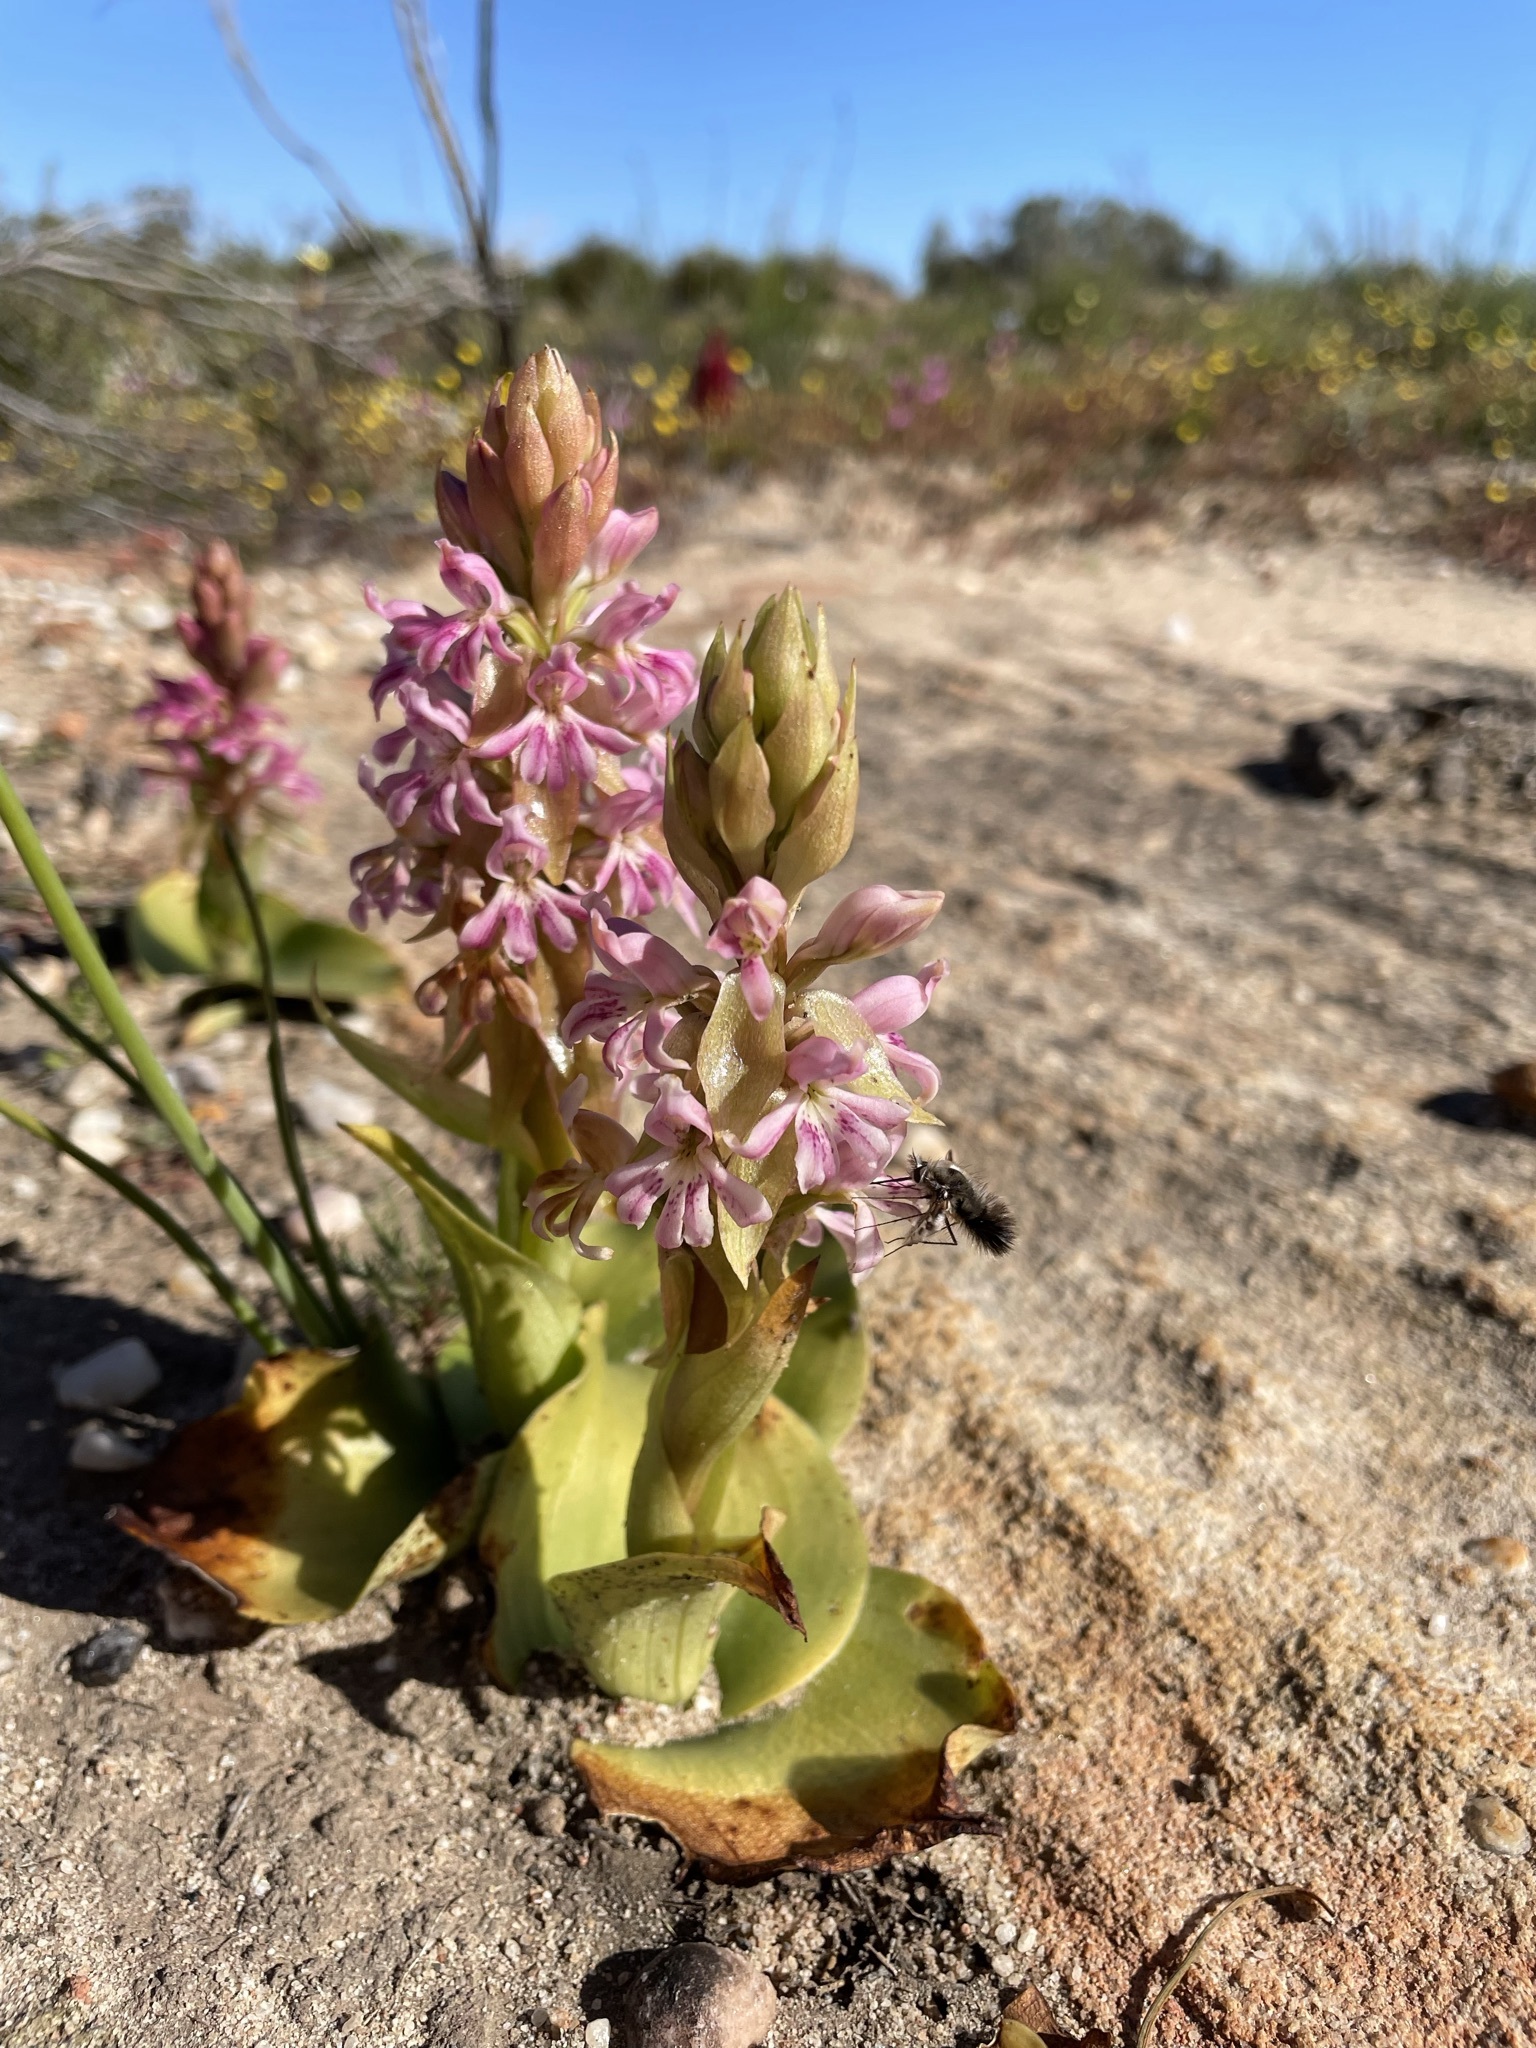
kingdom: Plantae
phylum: Tracheophyta
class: Liliopsida
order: Asparagales
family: Orchidaceae
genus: Satyrium
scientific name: Satyrium erectum
